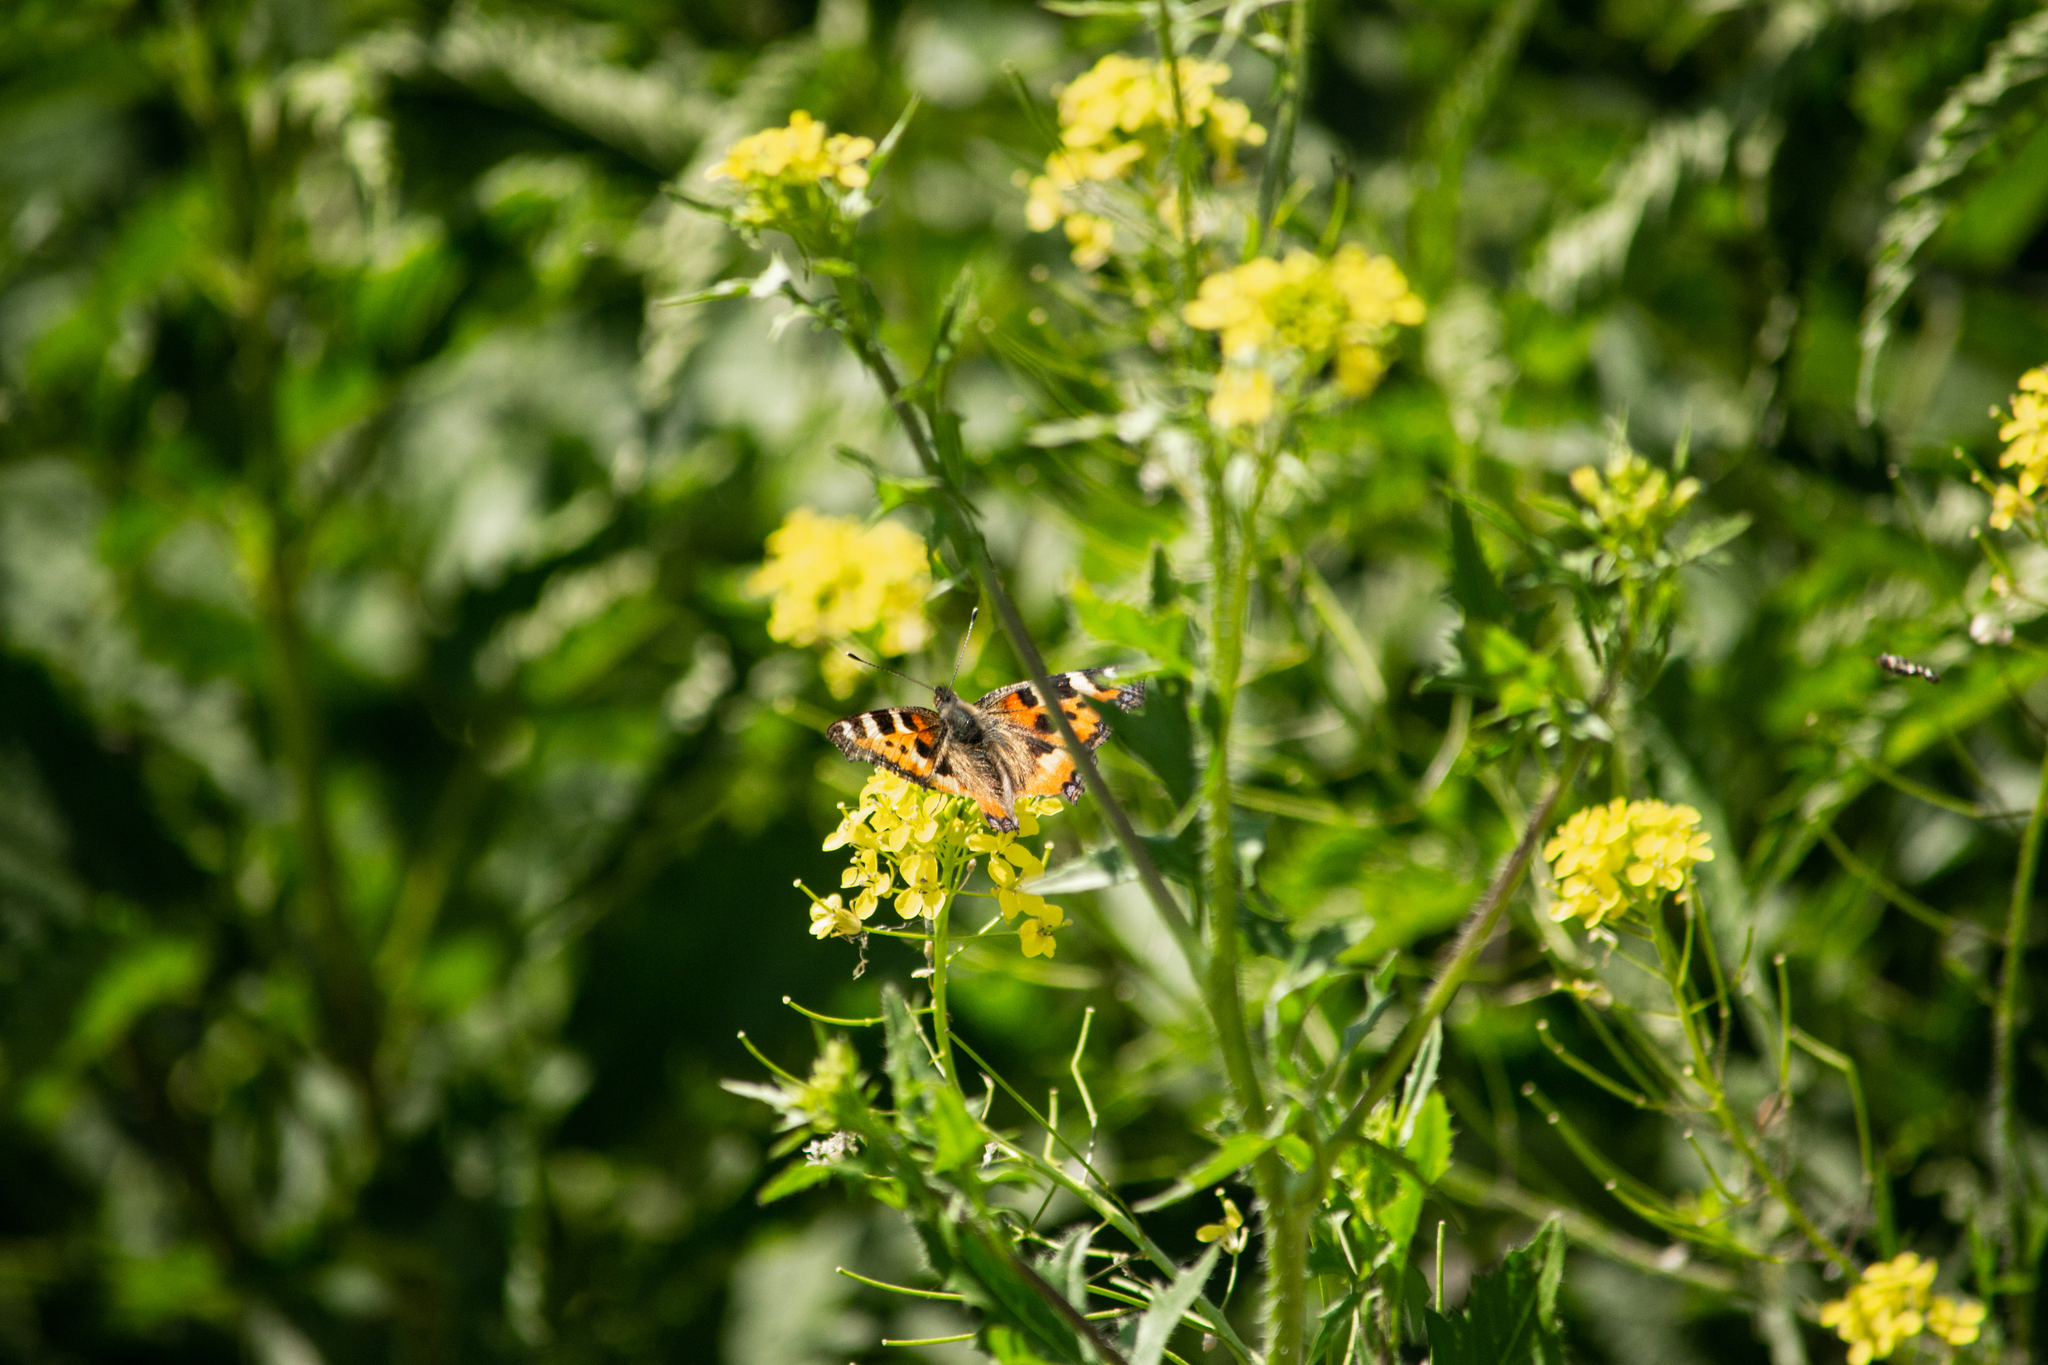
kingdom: Animalia
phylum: Arthropoda
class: Insecta
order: Lepidoptera
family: Nymphalidae
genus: Aglais
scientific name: Aglais urticae
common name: Small tortoiseshell
